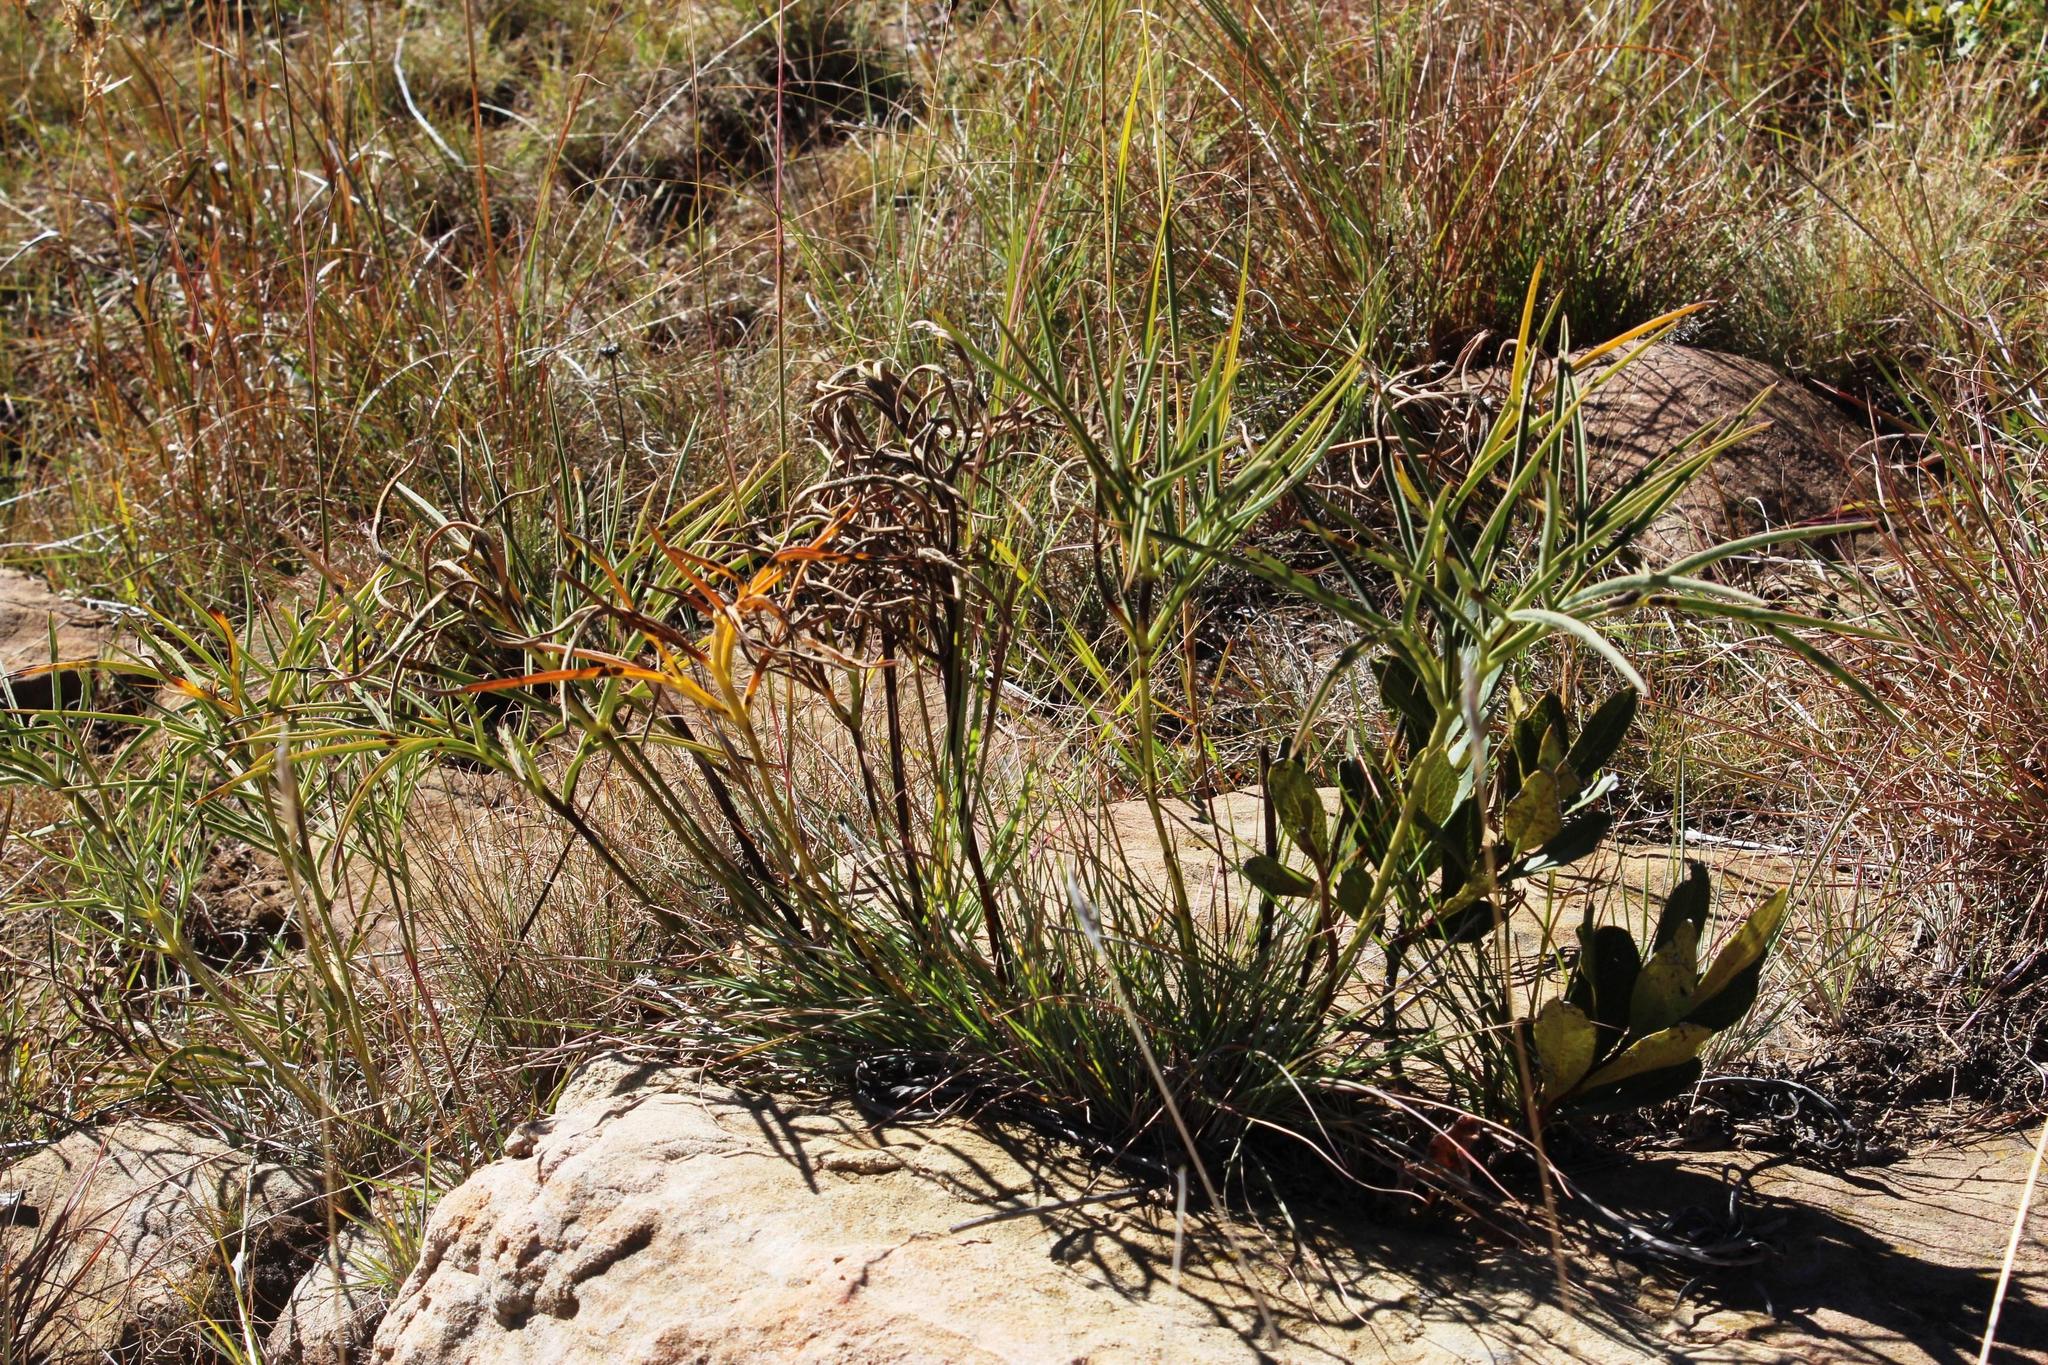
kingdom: Plantae
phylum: Tracheophyta
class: Magnoliopsida
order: Geraniales
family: Geraniaceae
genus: Pelargonium
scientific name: Pelargonium luridum
